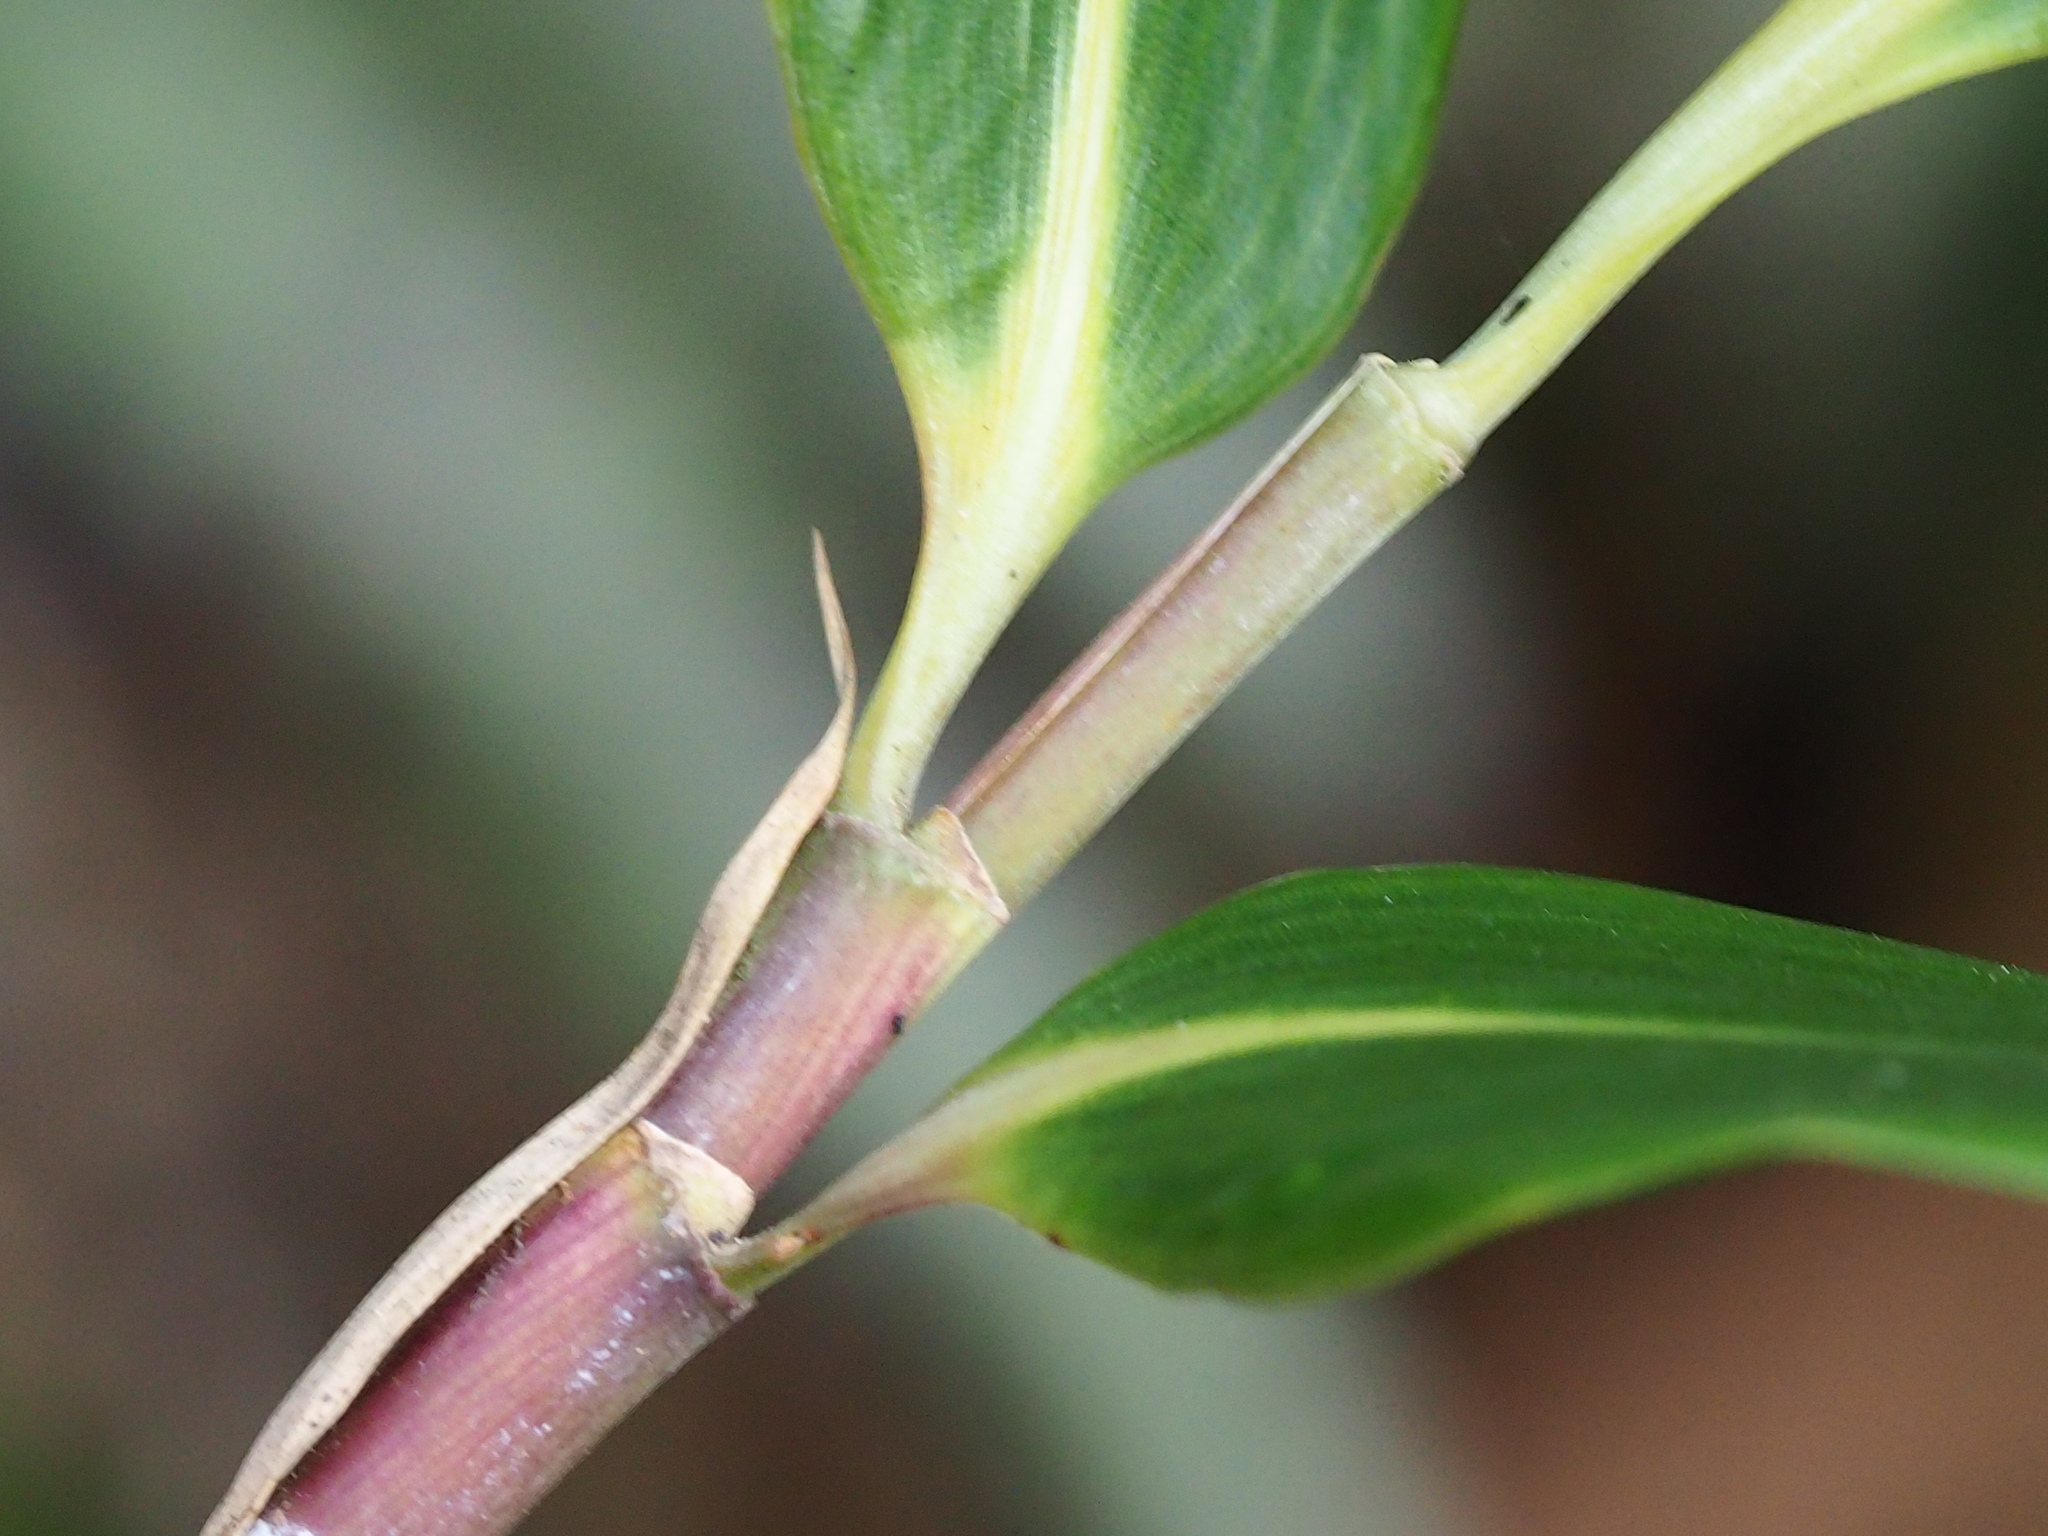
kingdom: Plantae
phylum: Tracheophyta
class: Liliopsida
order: Poales
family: Poaceae
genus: Pseudosasa
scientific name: Pseudosasa japonica
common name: Arrow bamboo
